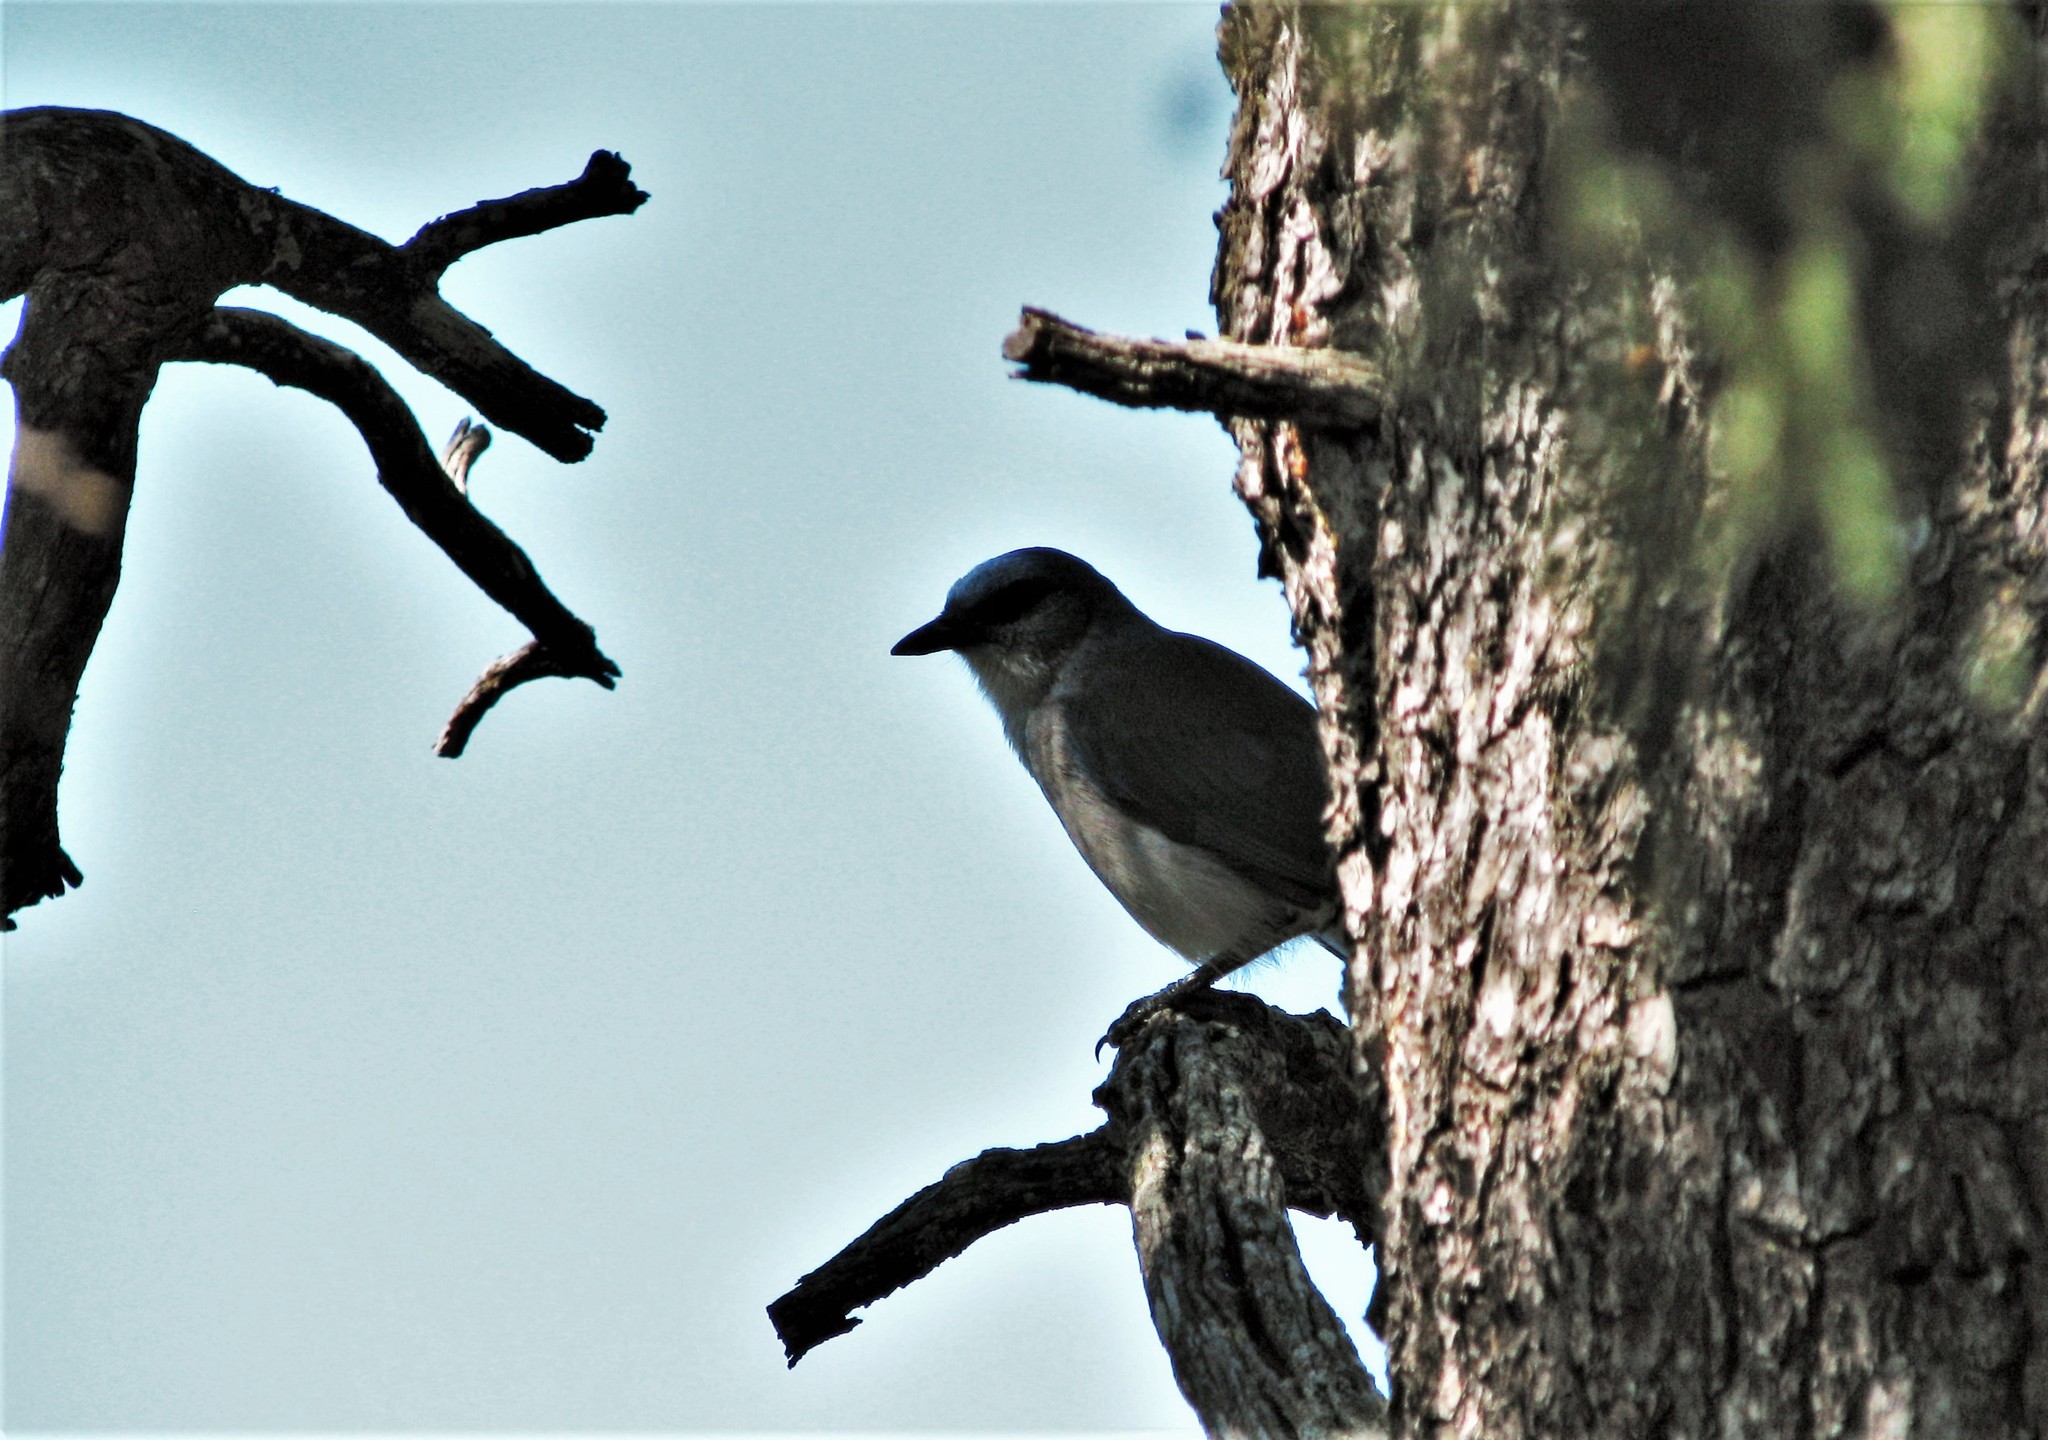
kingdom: Animalia
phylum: Chordata
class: Aves
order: Passeriformes
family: Corvidae
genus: Aphelocoma
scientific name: Aphelocoma wollweberi
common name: Mexican jay
